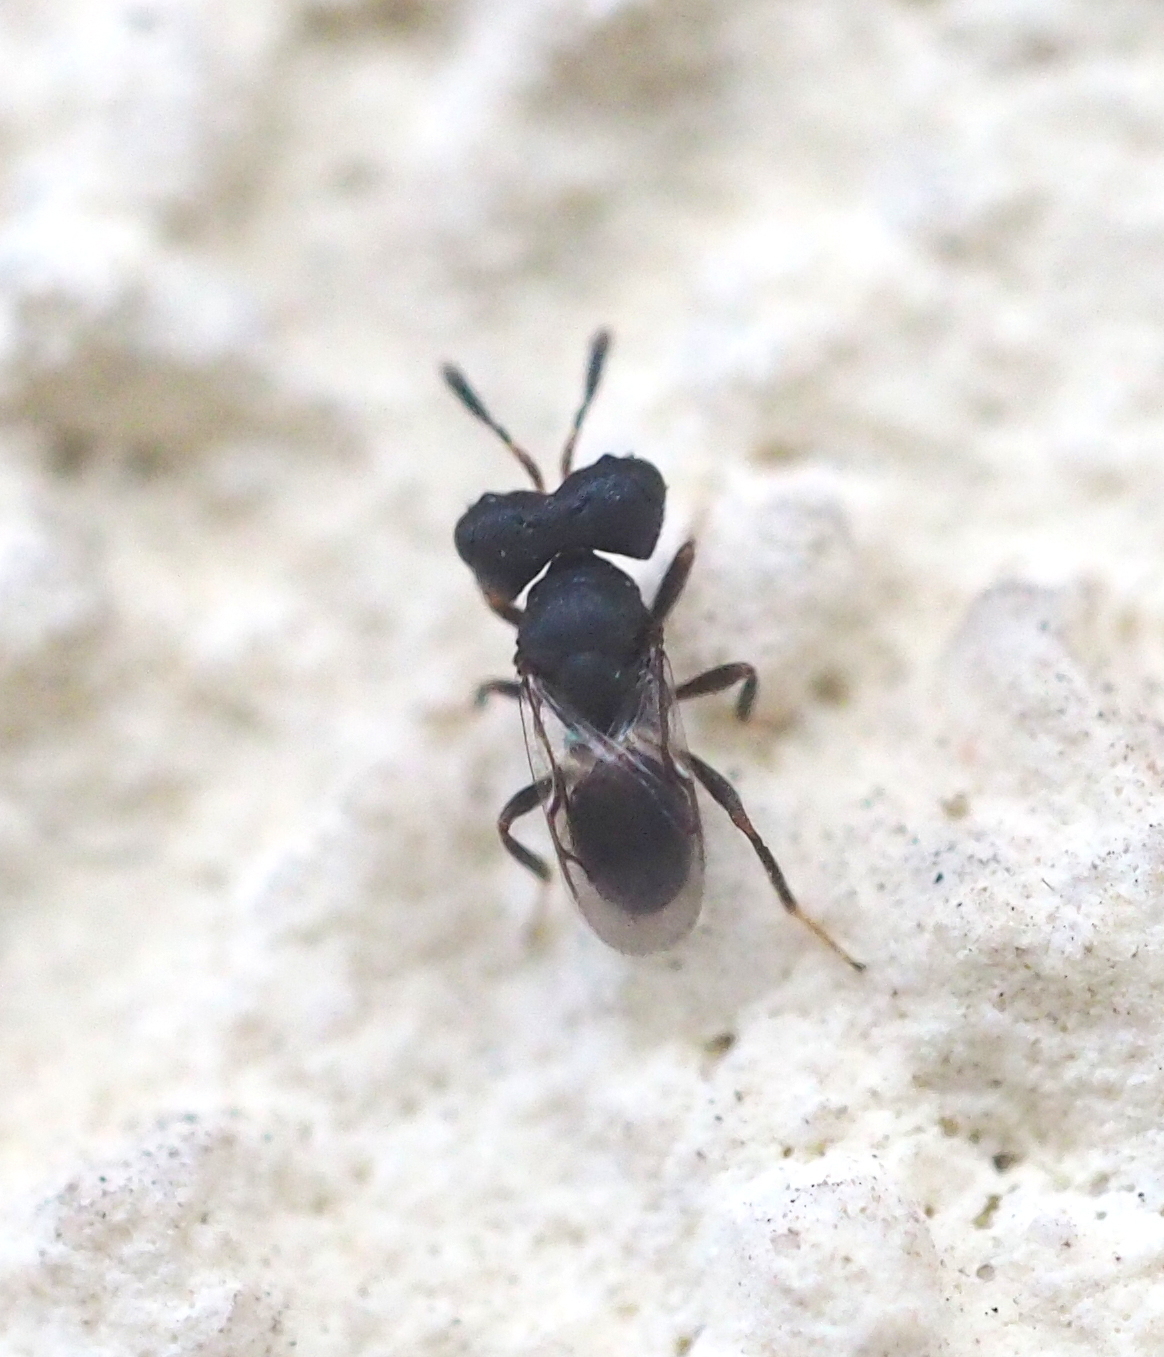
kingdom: Animalia
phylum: Arthropoda
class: Insecta
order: Hymenoptera
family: Pteromalidae
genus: Cratomus
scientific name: Cratomus megacephalus
